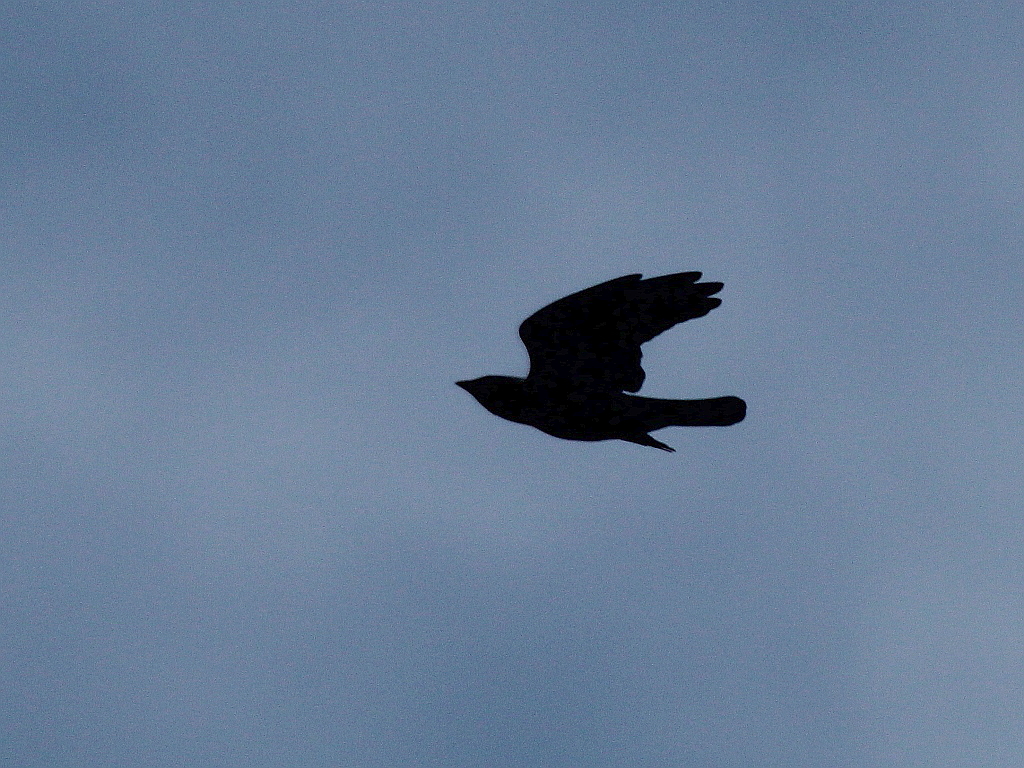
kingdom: Animalia
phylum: Chordata
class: Aves
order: Passeriformes
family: Corvidae
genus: Coloeus
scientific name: Coloeus monedula
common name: Western jackdaw
